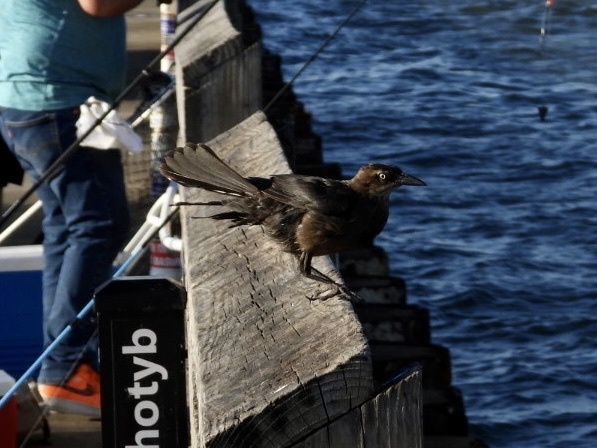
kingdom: Animalia
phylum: Chordata
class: Aves
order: Passeriformes
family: Icteridae
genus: Quiscalus
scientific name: Quiscalus mexicanus
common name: Great-tailed grackle
